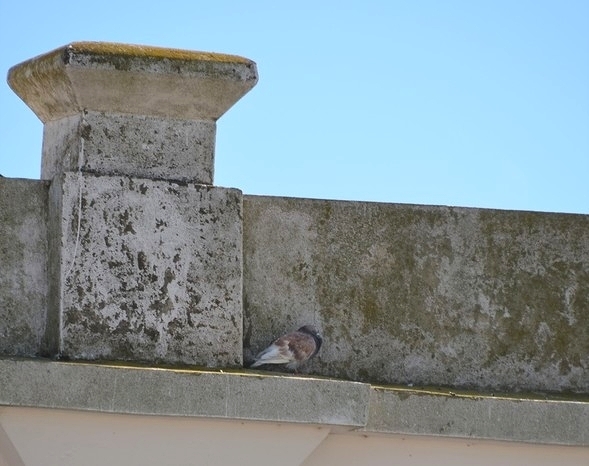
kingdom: Animalia
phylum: Chordata
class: Aves
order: Columbiformes
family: Columbidae
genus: Columba
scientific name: Columba livia
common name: Rock pigeon
